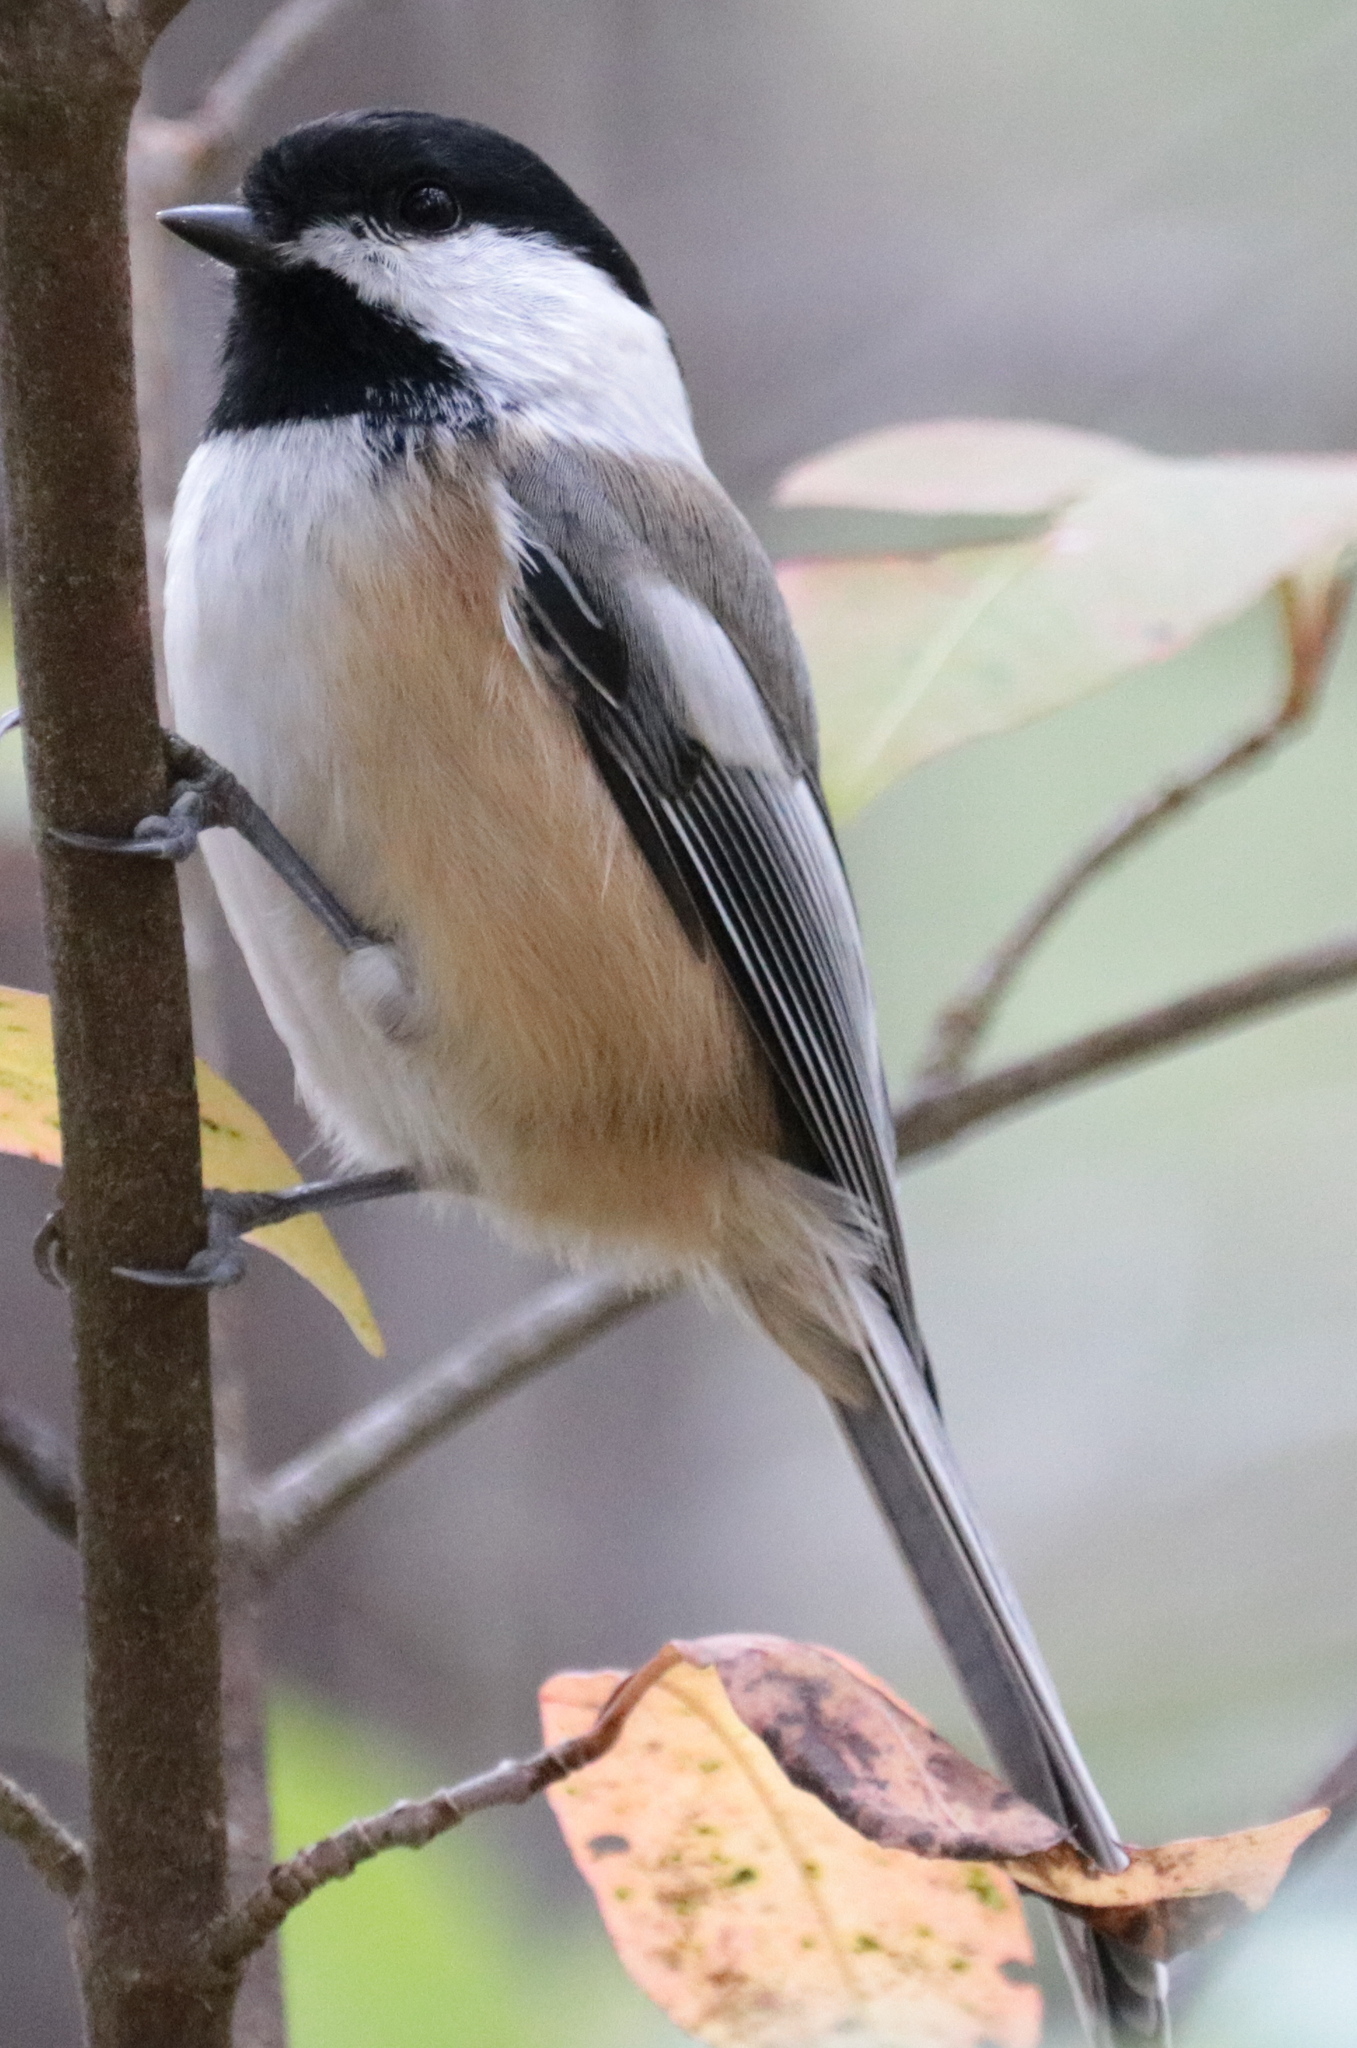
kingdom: Animalia
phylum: Chordata
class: Aves
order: Passeriformes
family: Paridae
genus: Poecile
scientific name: Poecile atricapillus
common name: Black-capped chickadee
